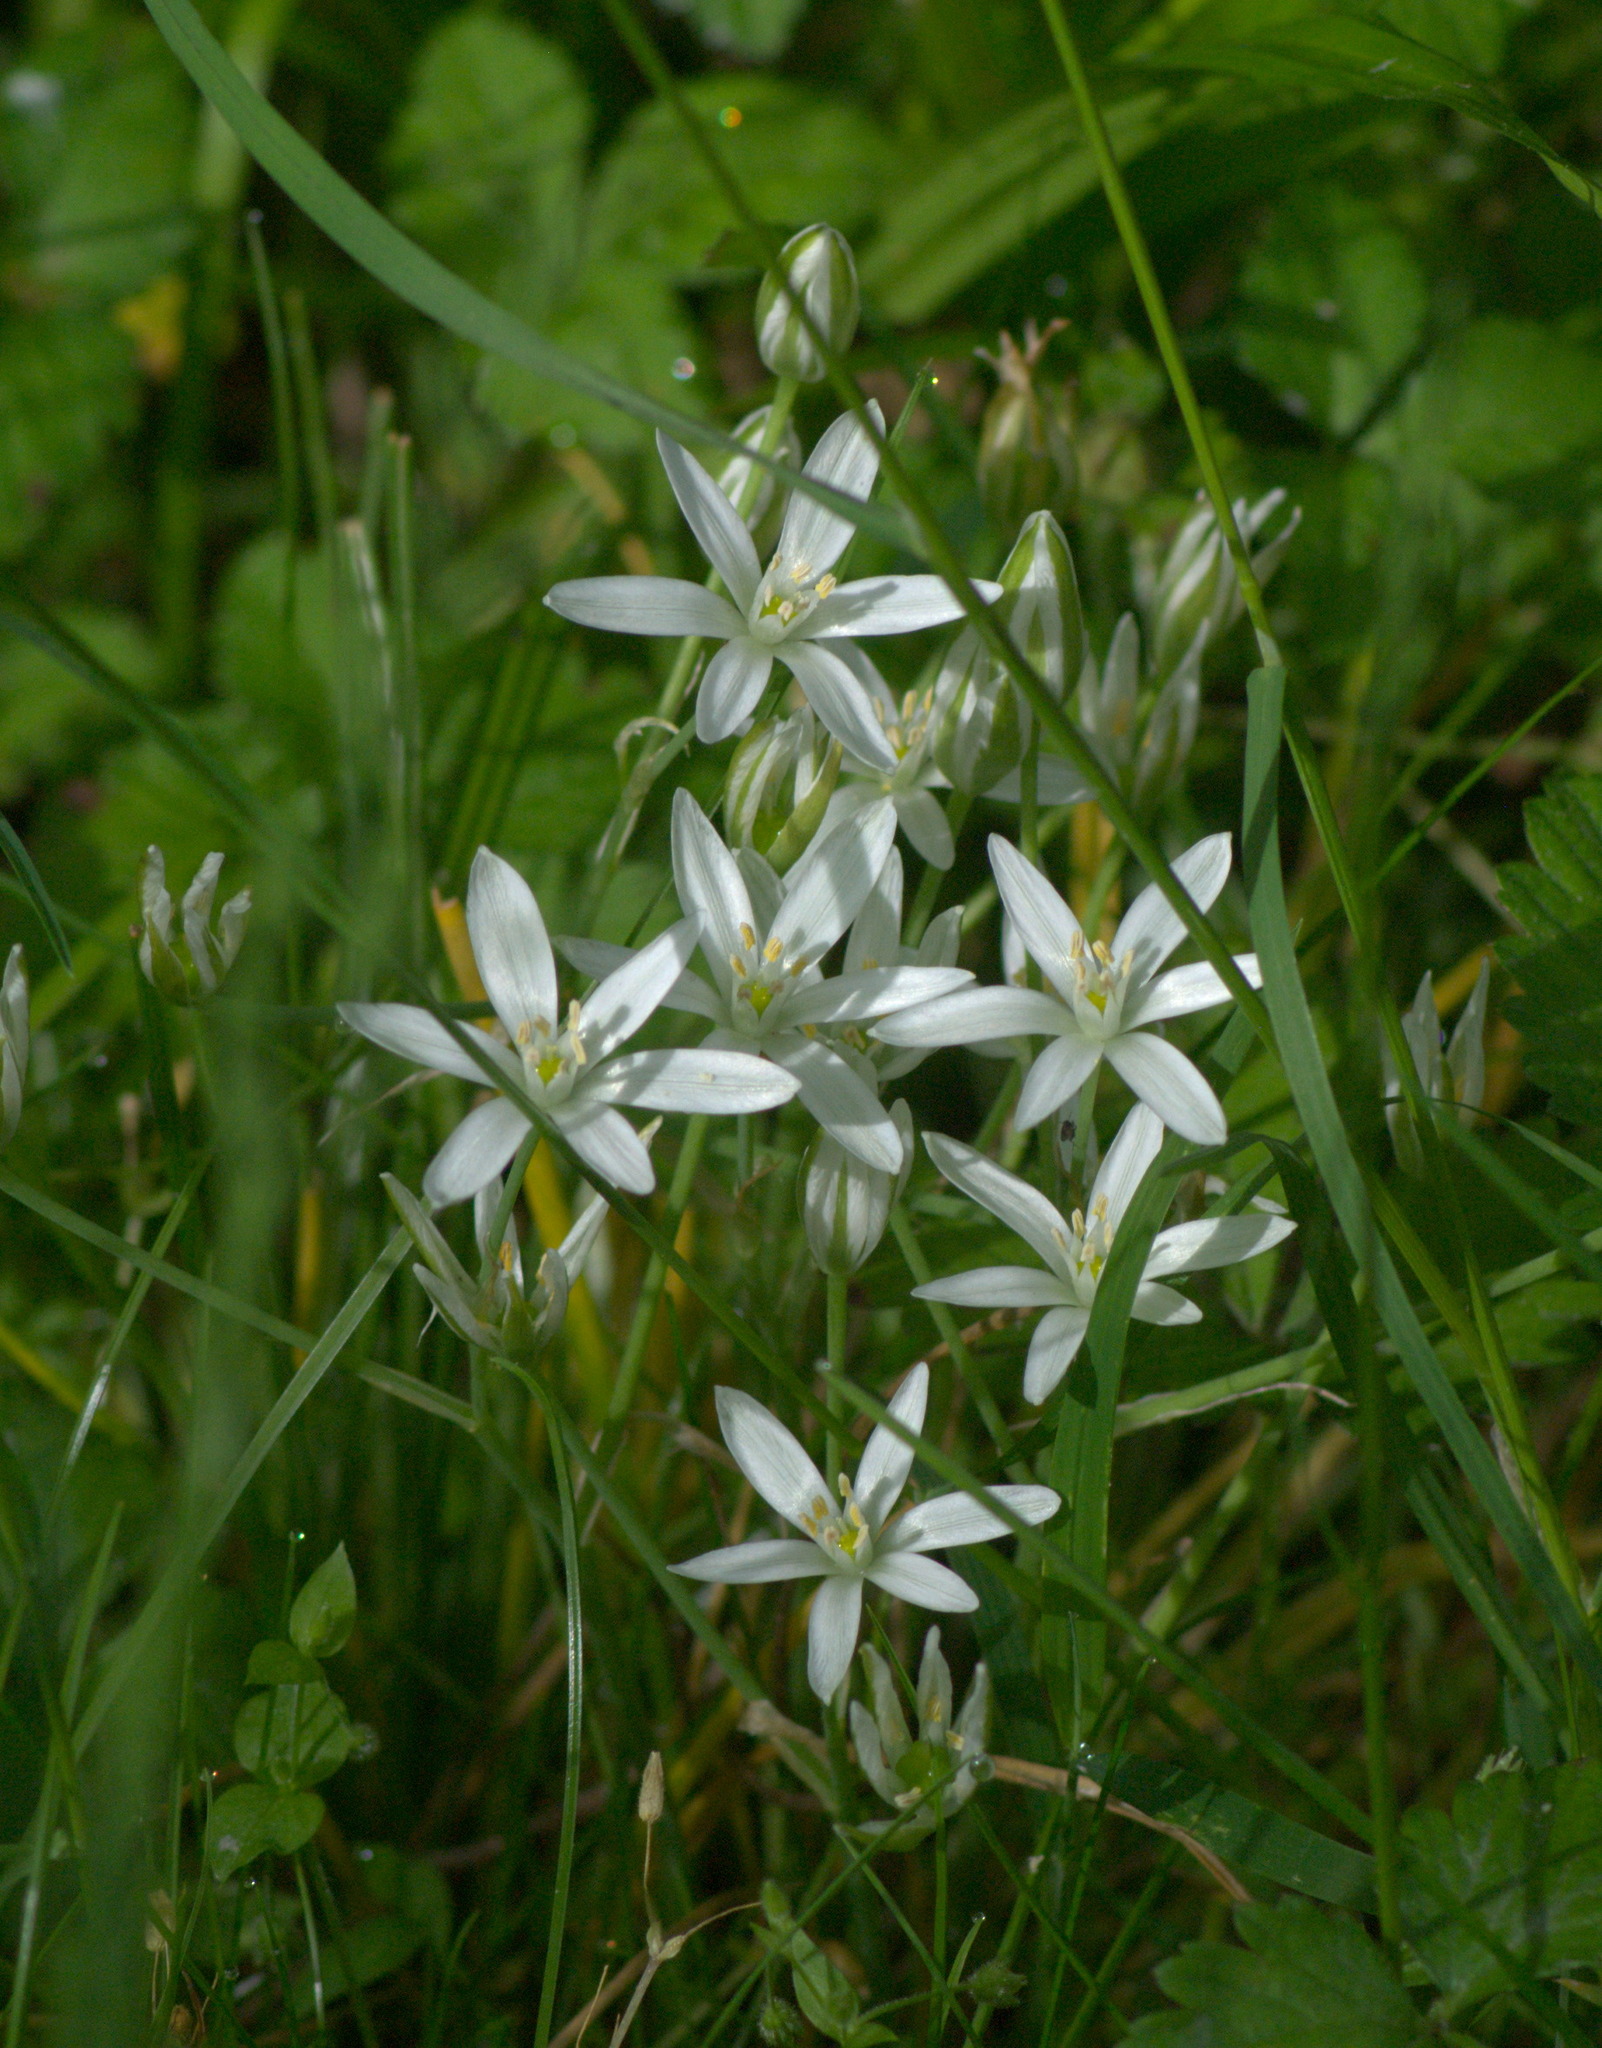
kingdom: Plantae
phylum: Tracheophyta
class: Liliopsida
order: Asparagales
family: Asparagaceae
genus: Ornithogalum
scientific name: Ornithogalum umbellatum
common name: Garden star-of-bethlehem
